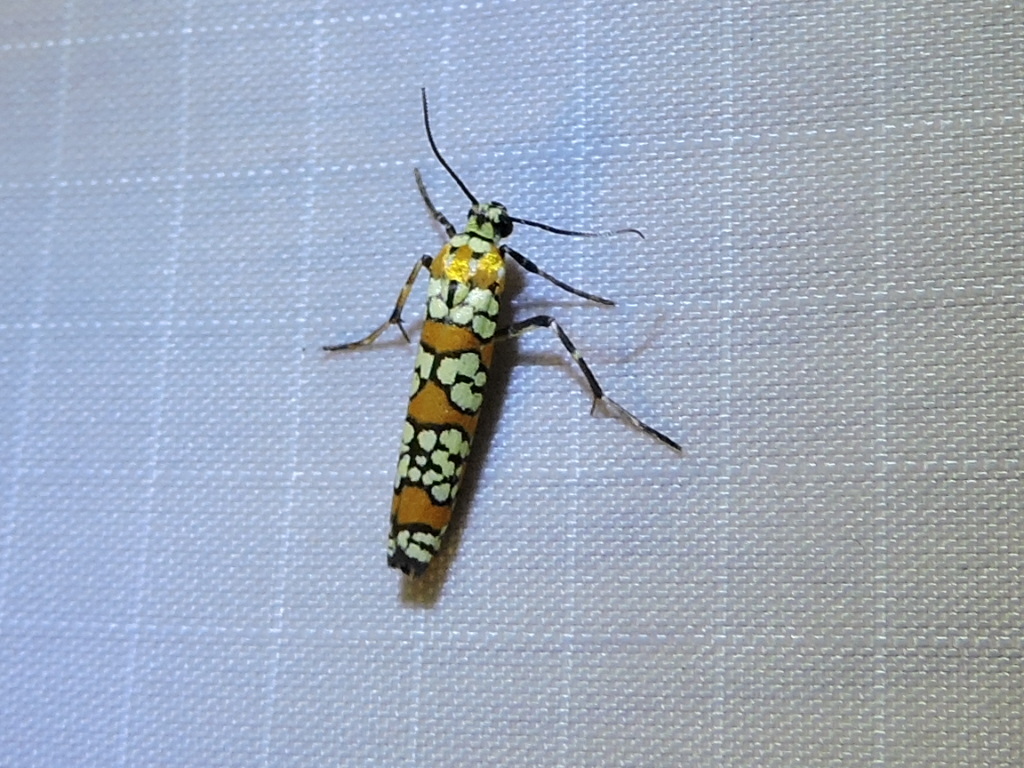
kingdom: Animalia
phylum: Arthropoda
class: Insecta
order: Lepidoptera
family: Attevidae
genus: Atteva
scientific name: Atteva punctella
